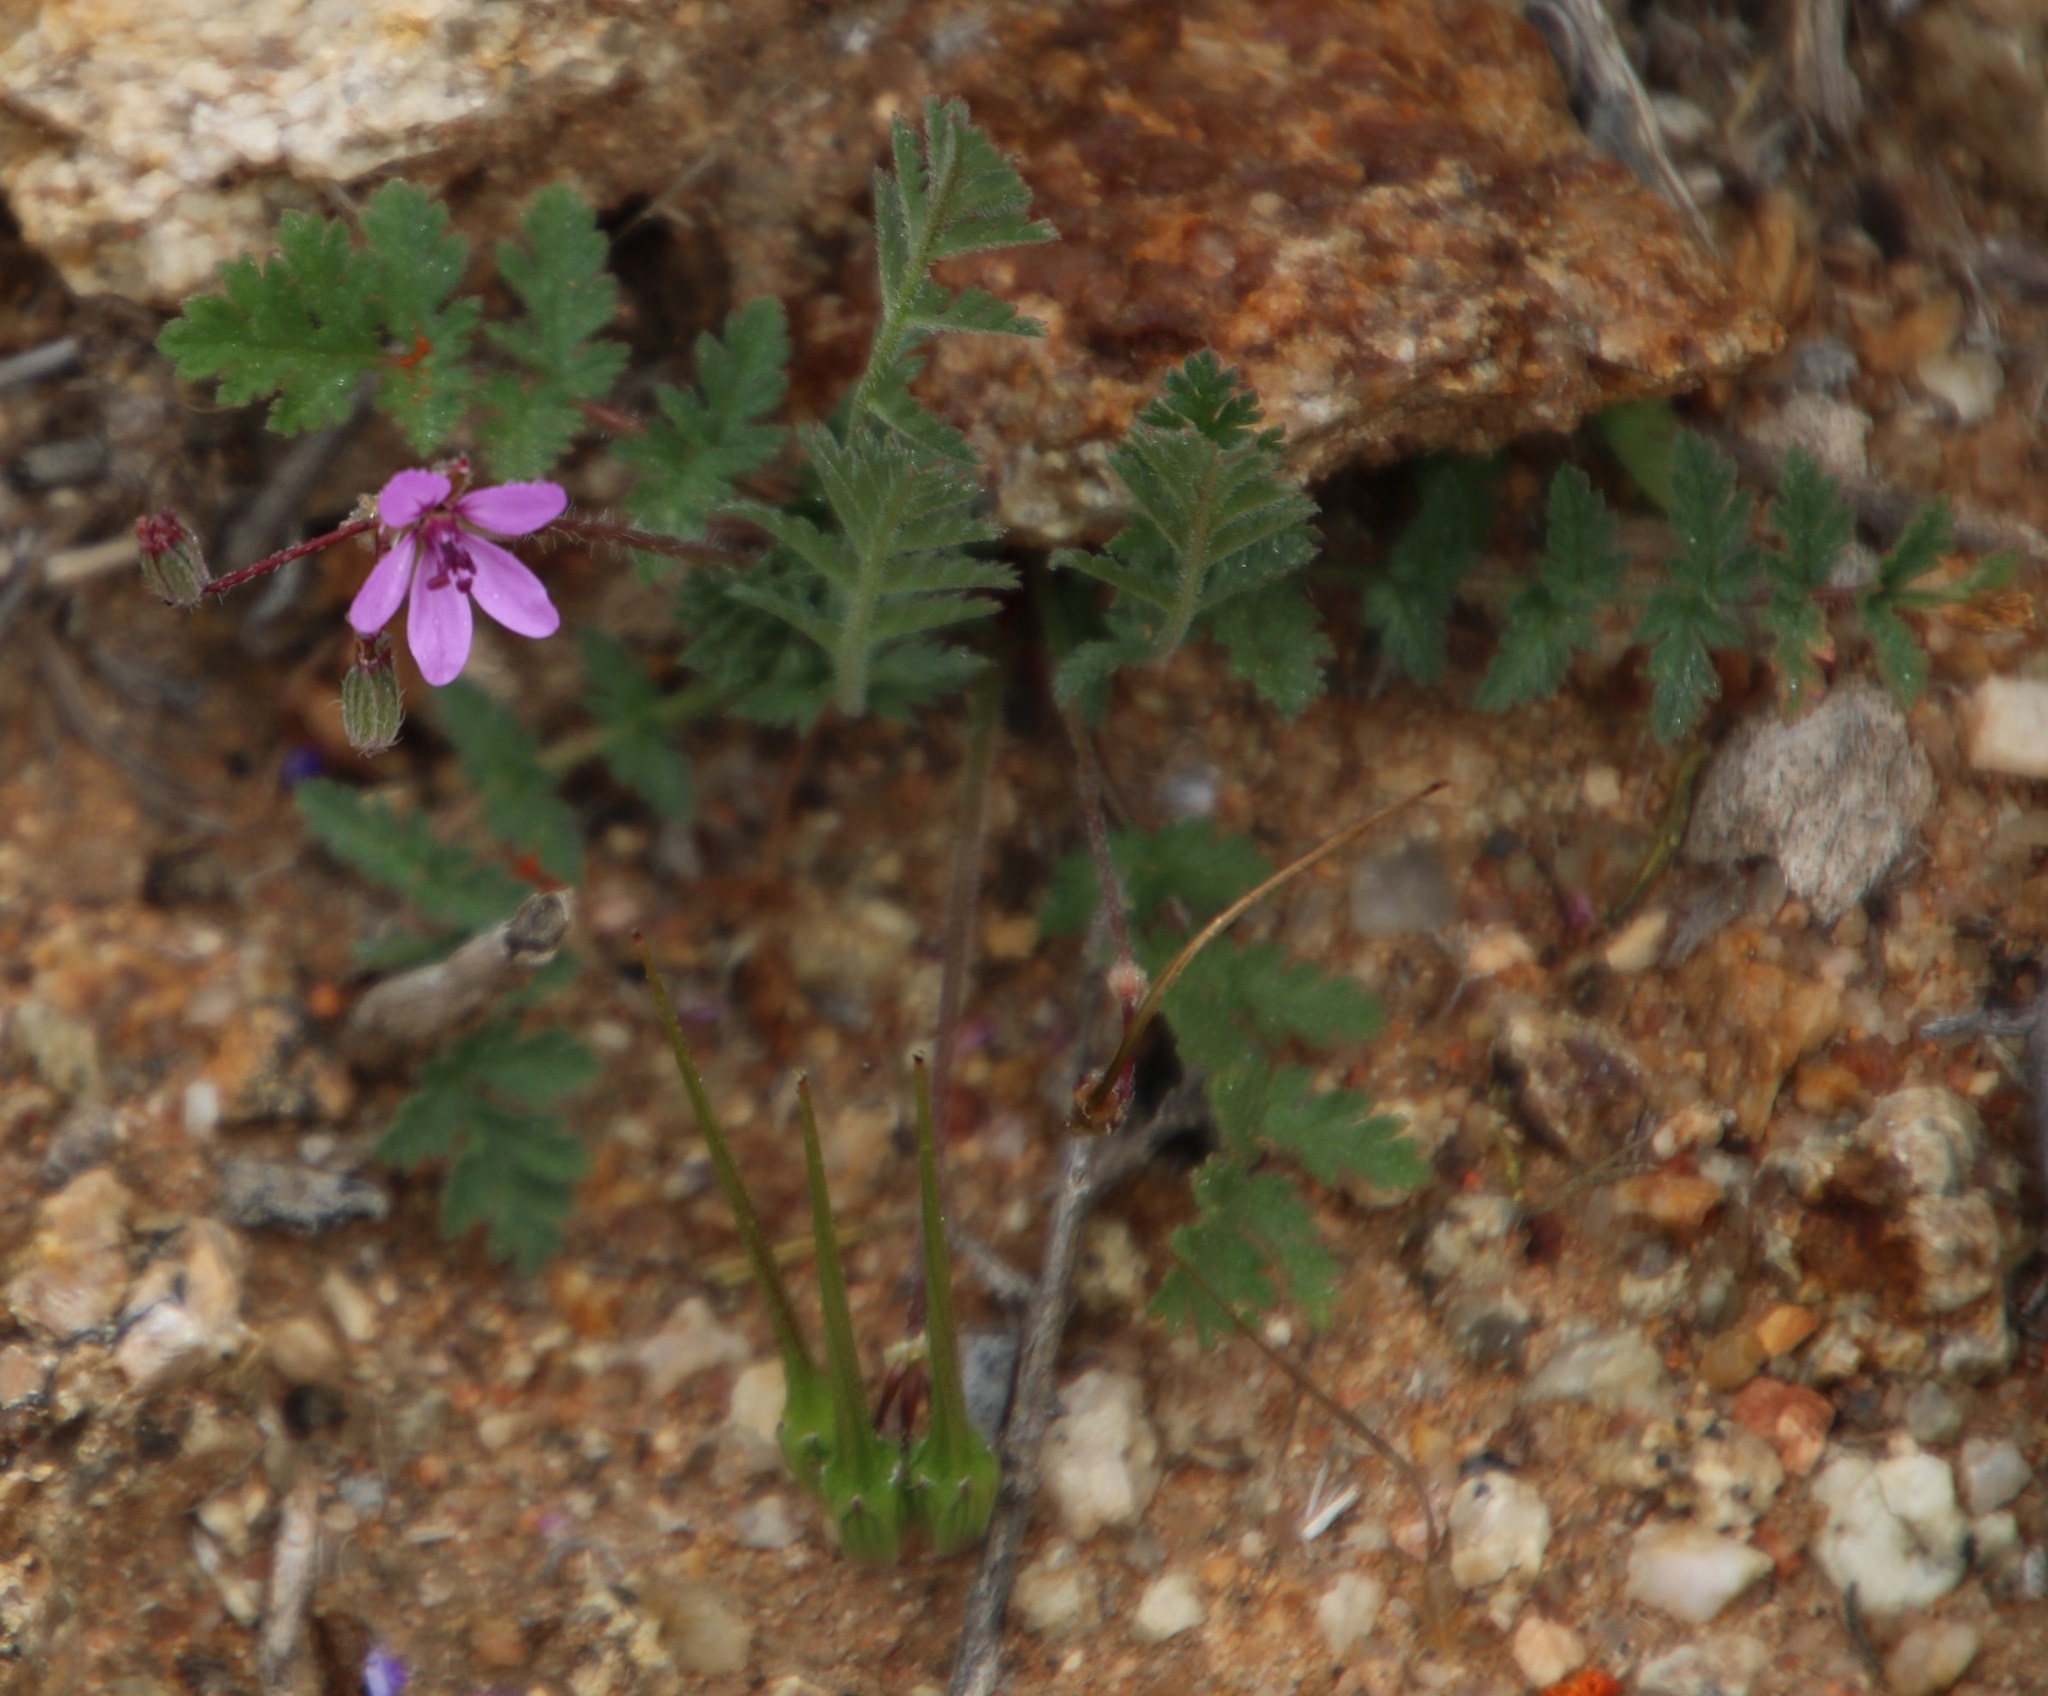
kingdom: Plantae
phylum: Tracheophyta
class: Magnoliopsida
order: Geraniales
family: Geraniaceae
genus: Erodium
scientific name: Erodium cicutarium
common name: Common stork's-bill
